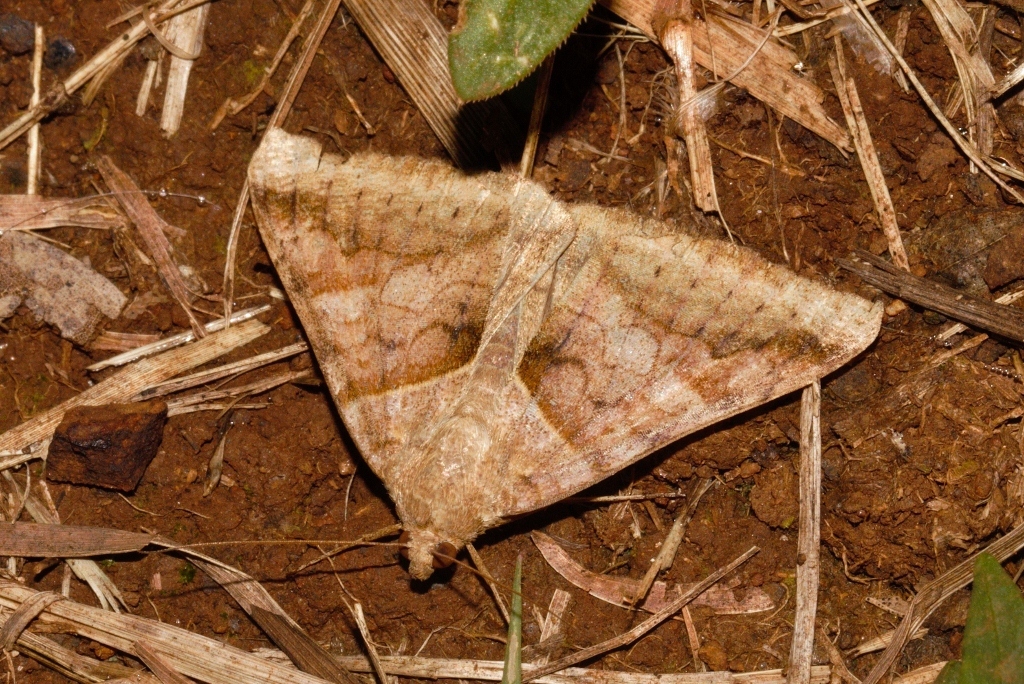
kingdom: Animalia
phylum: Arthropoda
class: Insecta
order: Lepidoptera
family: Erebidae
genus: Mocis
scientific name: Mocis mayeri
